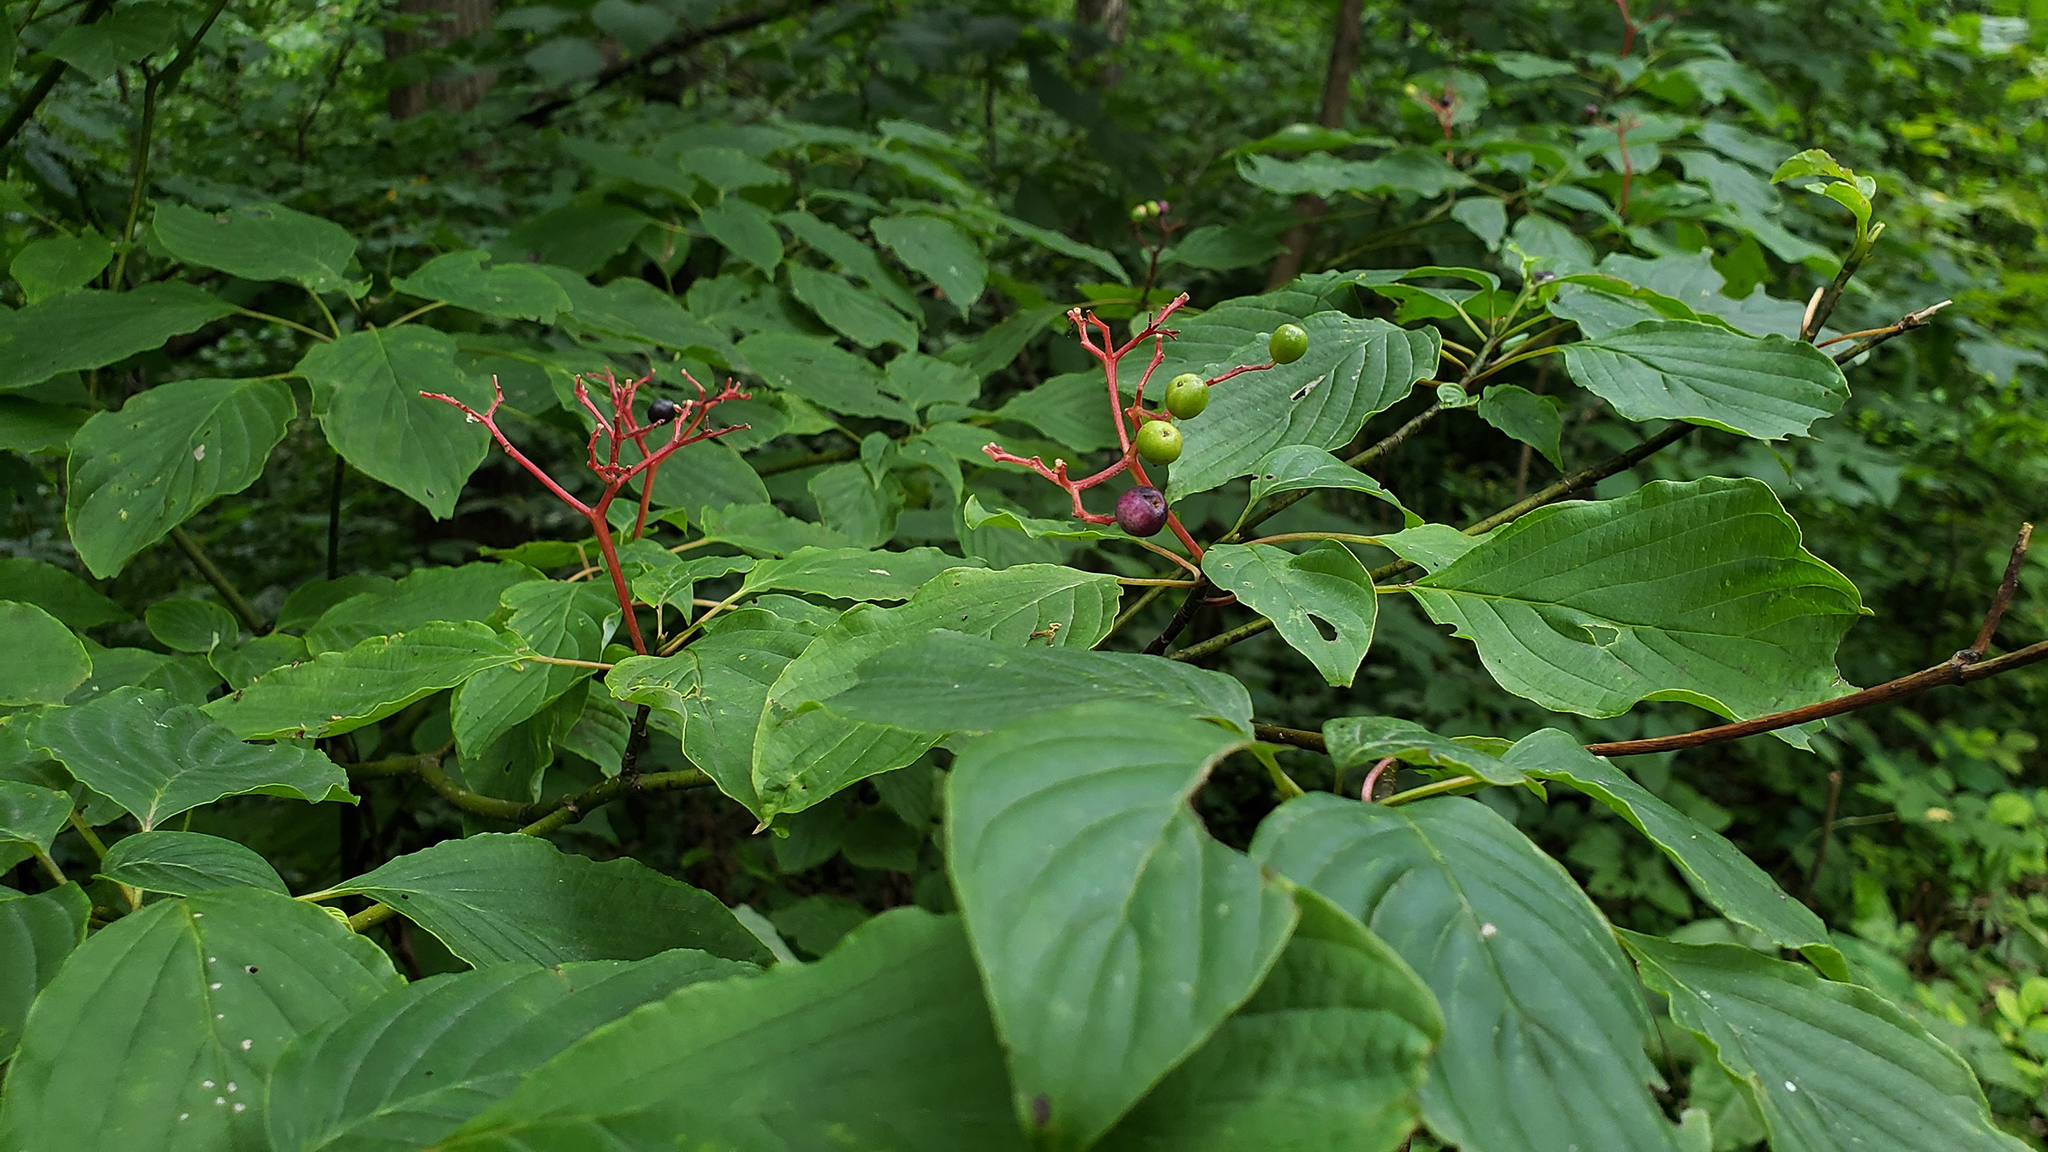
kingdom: Plantae
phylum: Tracheophyta
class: Magnoliopsida
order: Cornales
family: Cornaceae
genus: Cornus
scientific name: Cornus alternifolia
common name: Pagoda dogwood
